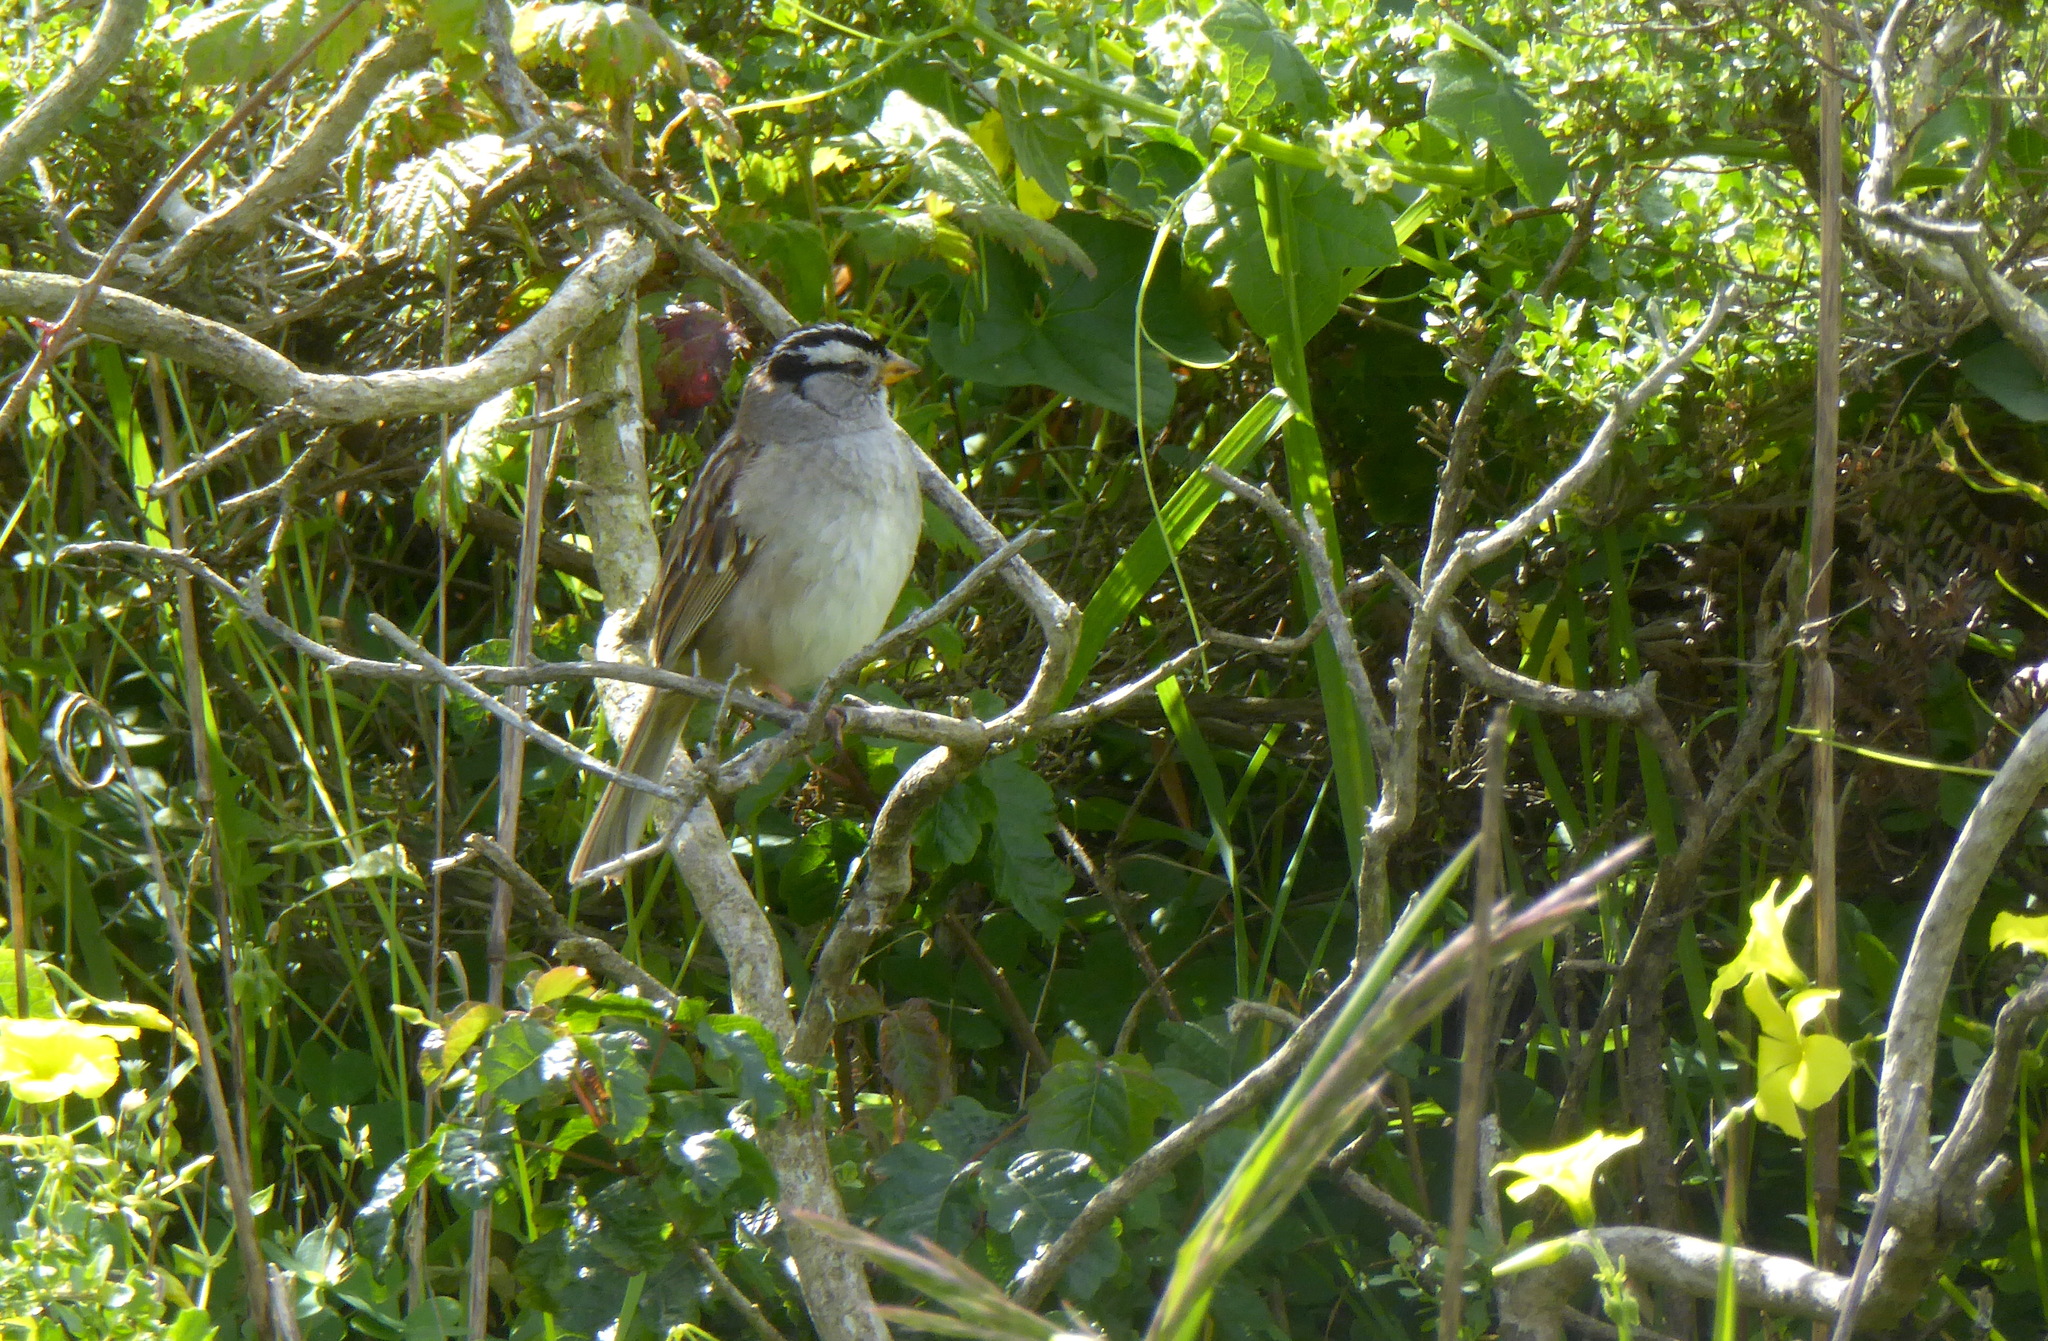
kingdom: Animalia
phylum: Chordata
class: Aves
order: Passeriformes
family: Passerellidae
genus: Zonotrichia
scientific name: Zonotrichia leucophrys
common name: White-crowned sparrow
